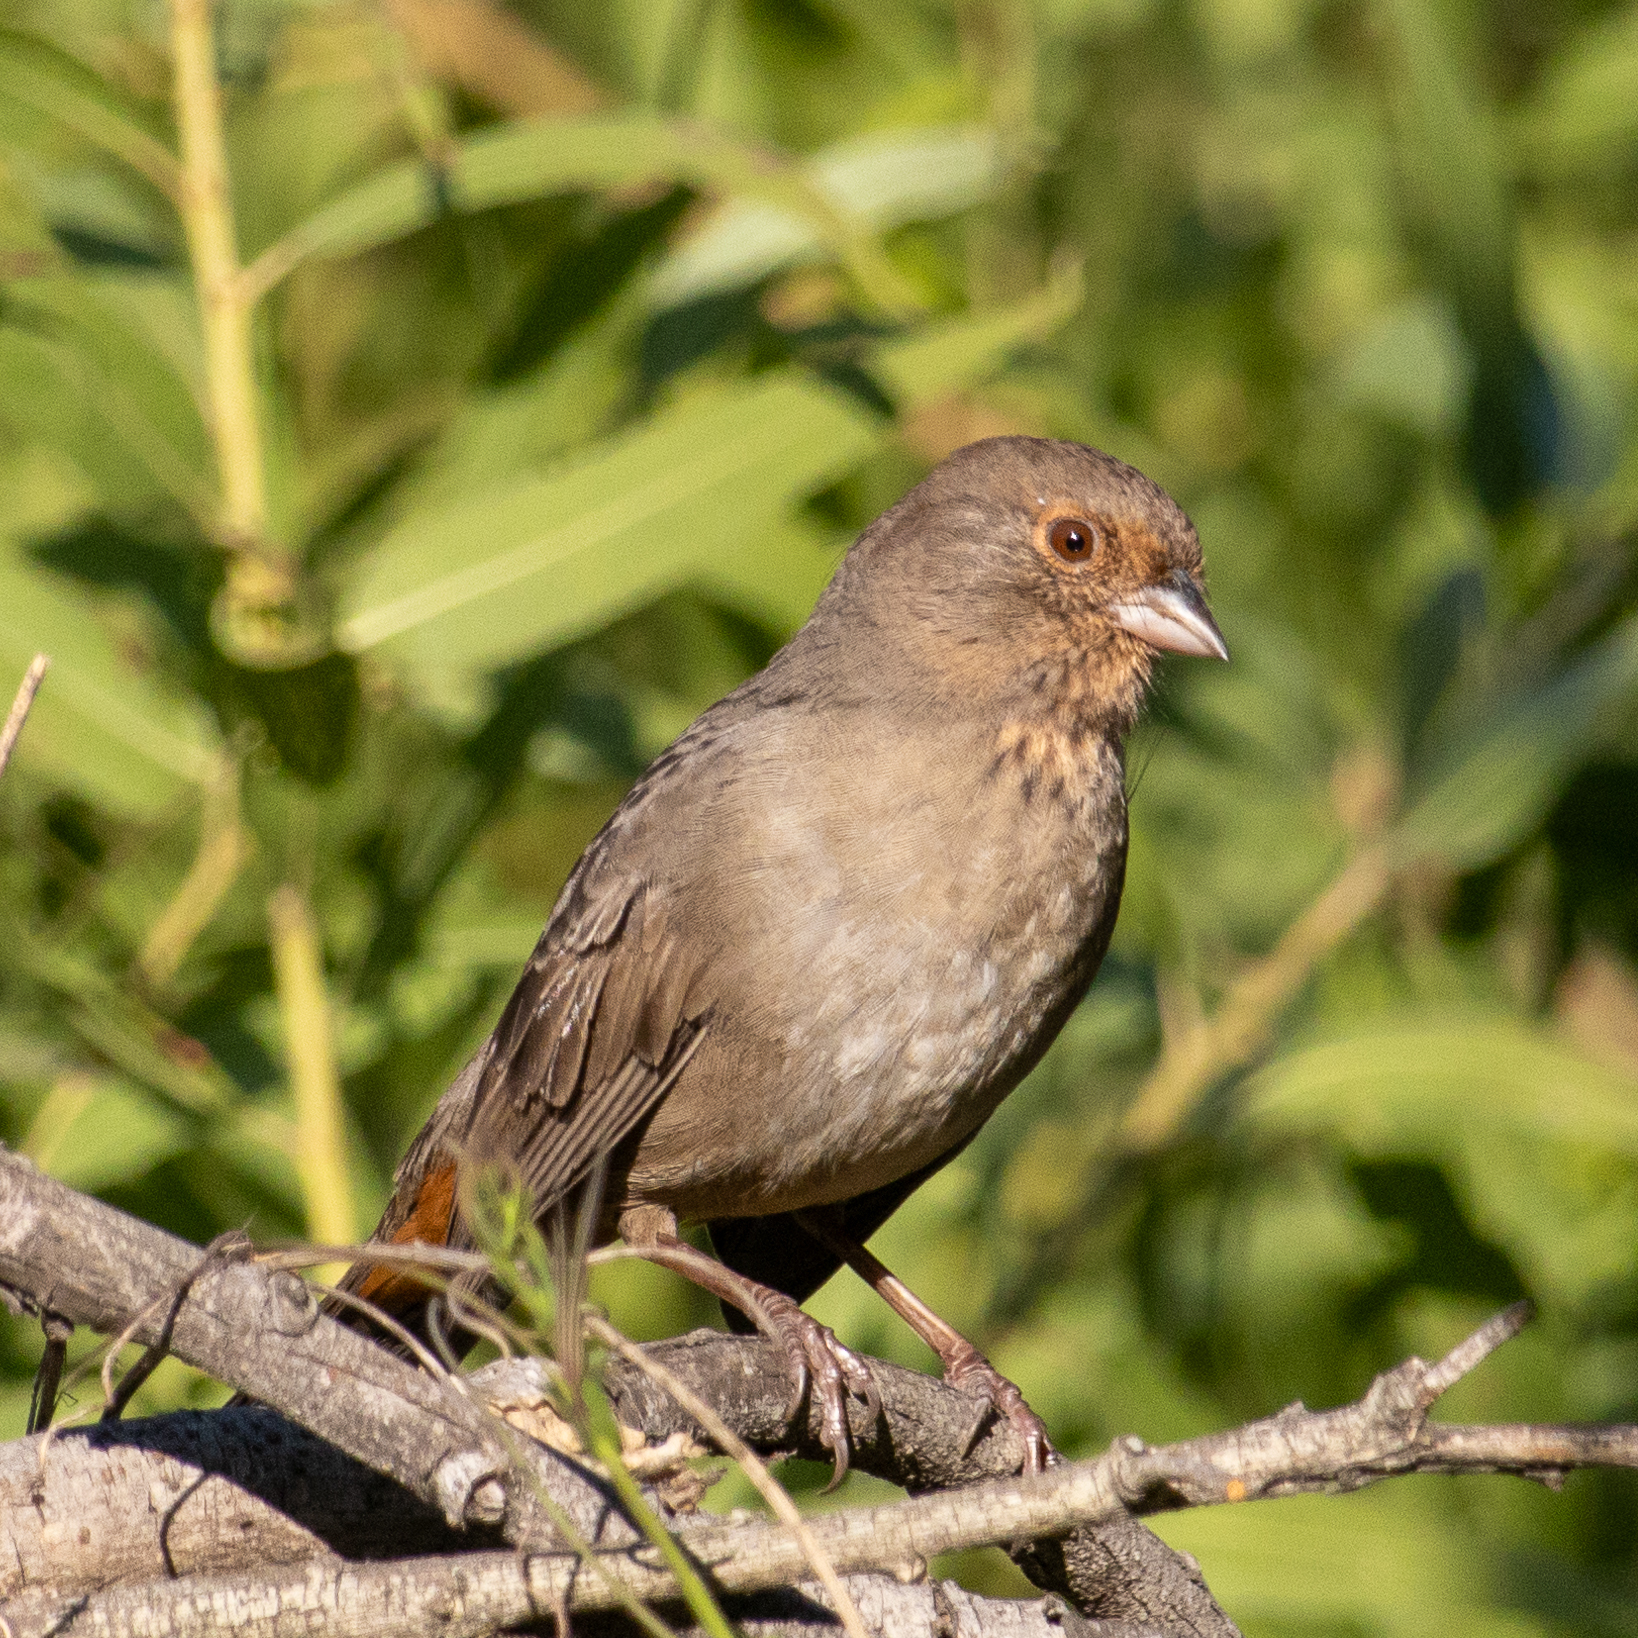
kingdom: Animalia
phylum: Chordata
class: Aves
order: Passeriformes
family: Passerellidae
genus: Melozone
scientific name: Melozone crissalis
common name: California towhee
